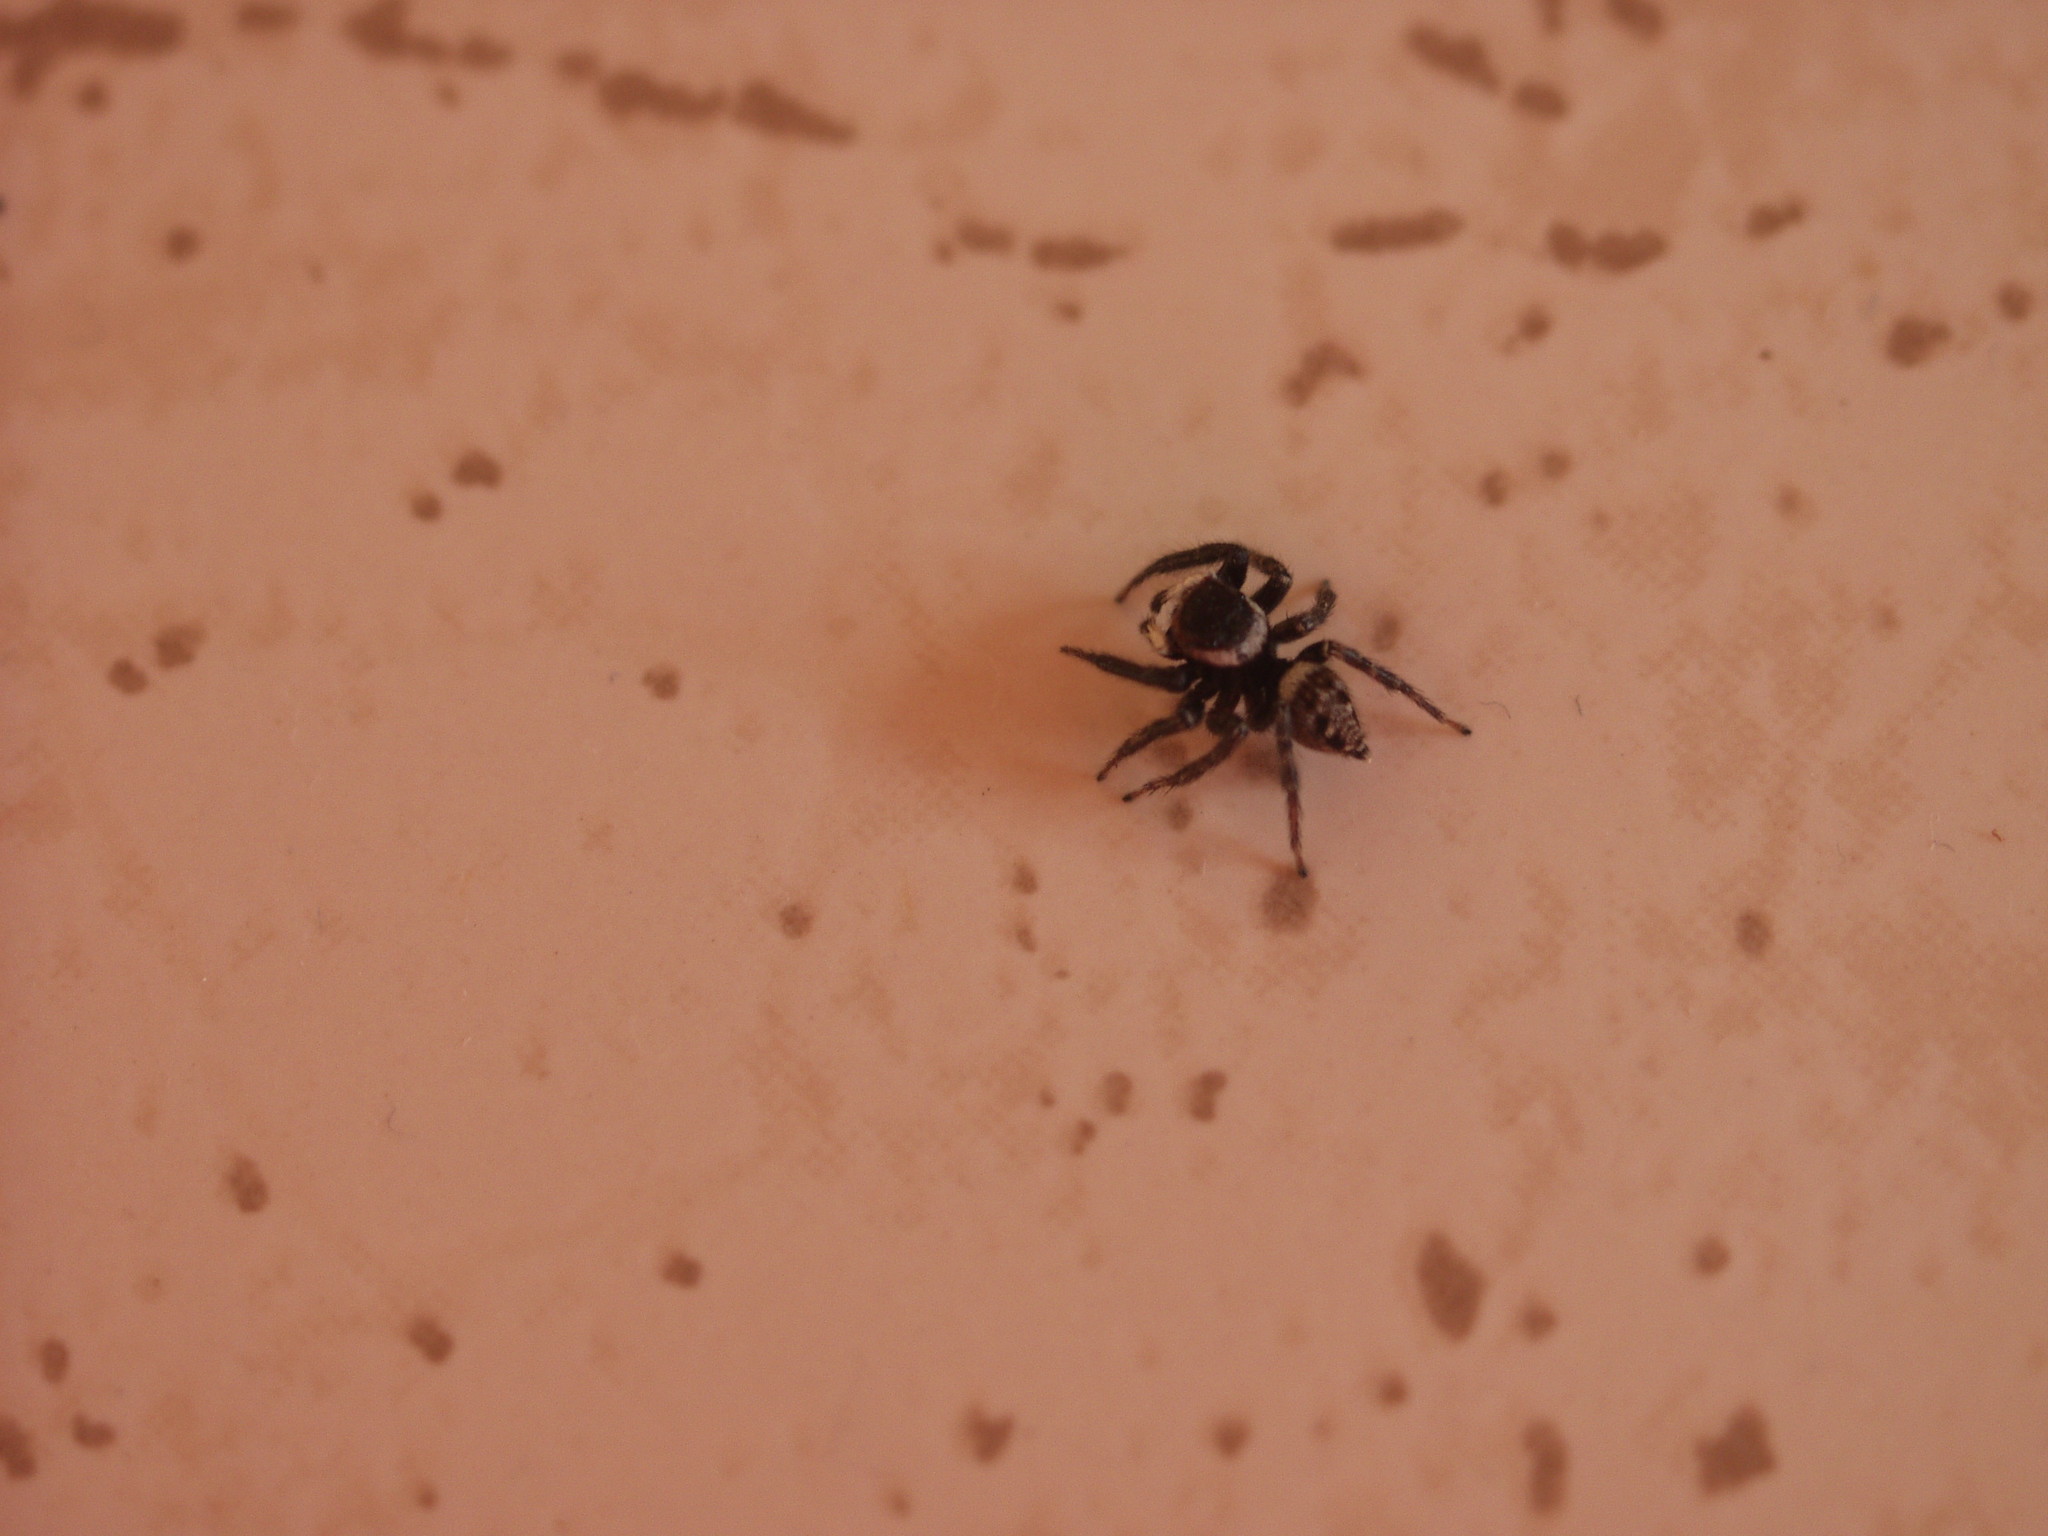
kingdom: Animalia
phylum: Arthropoda
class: Arachnida
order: Araneae
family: Salticidae
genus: Hasarius
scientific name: Hasarius adansoni
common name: Jumping spider
